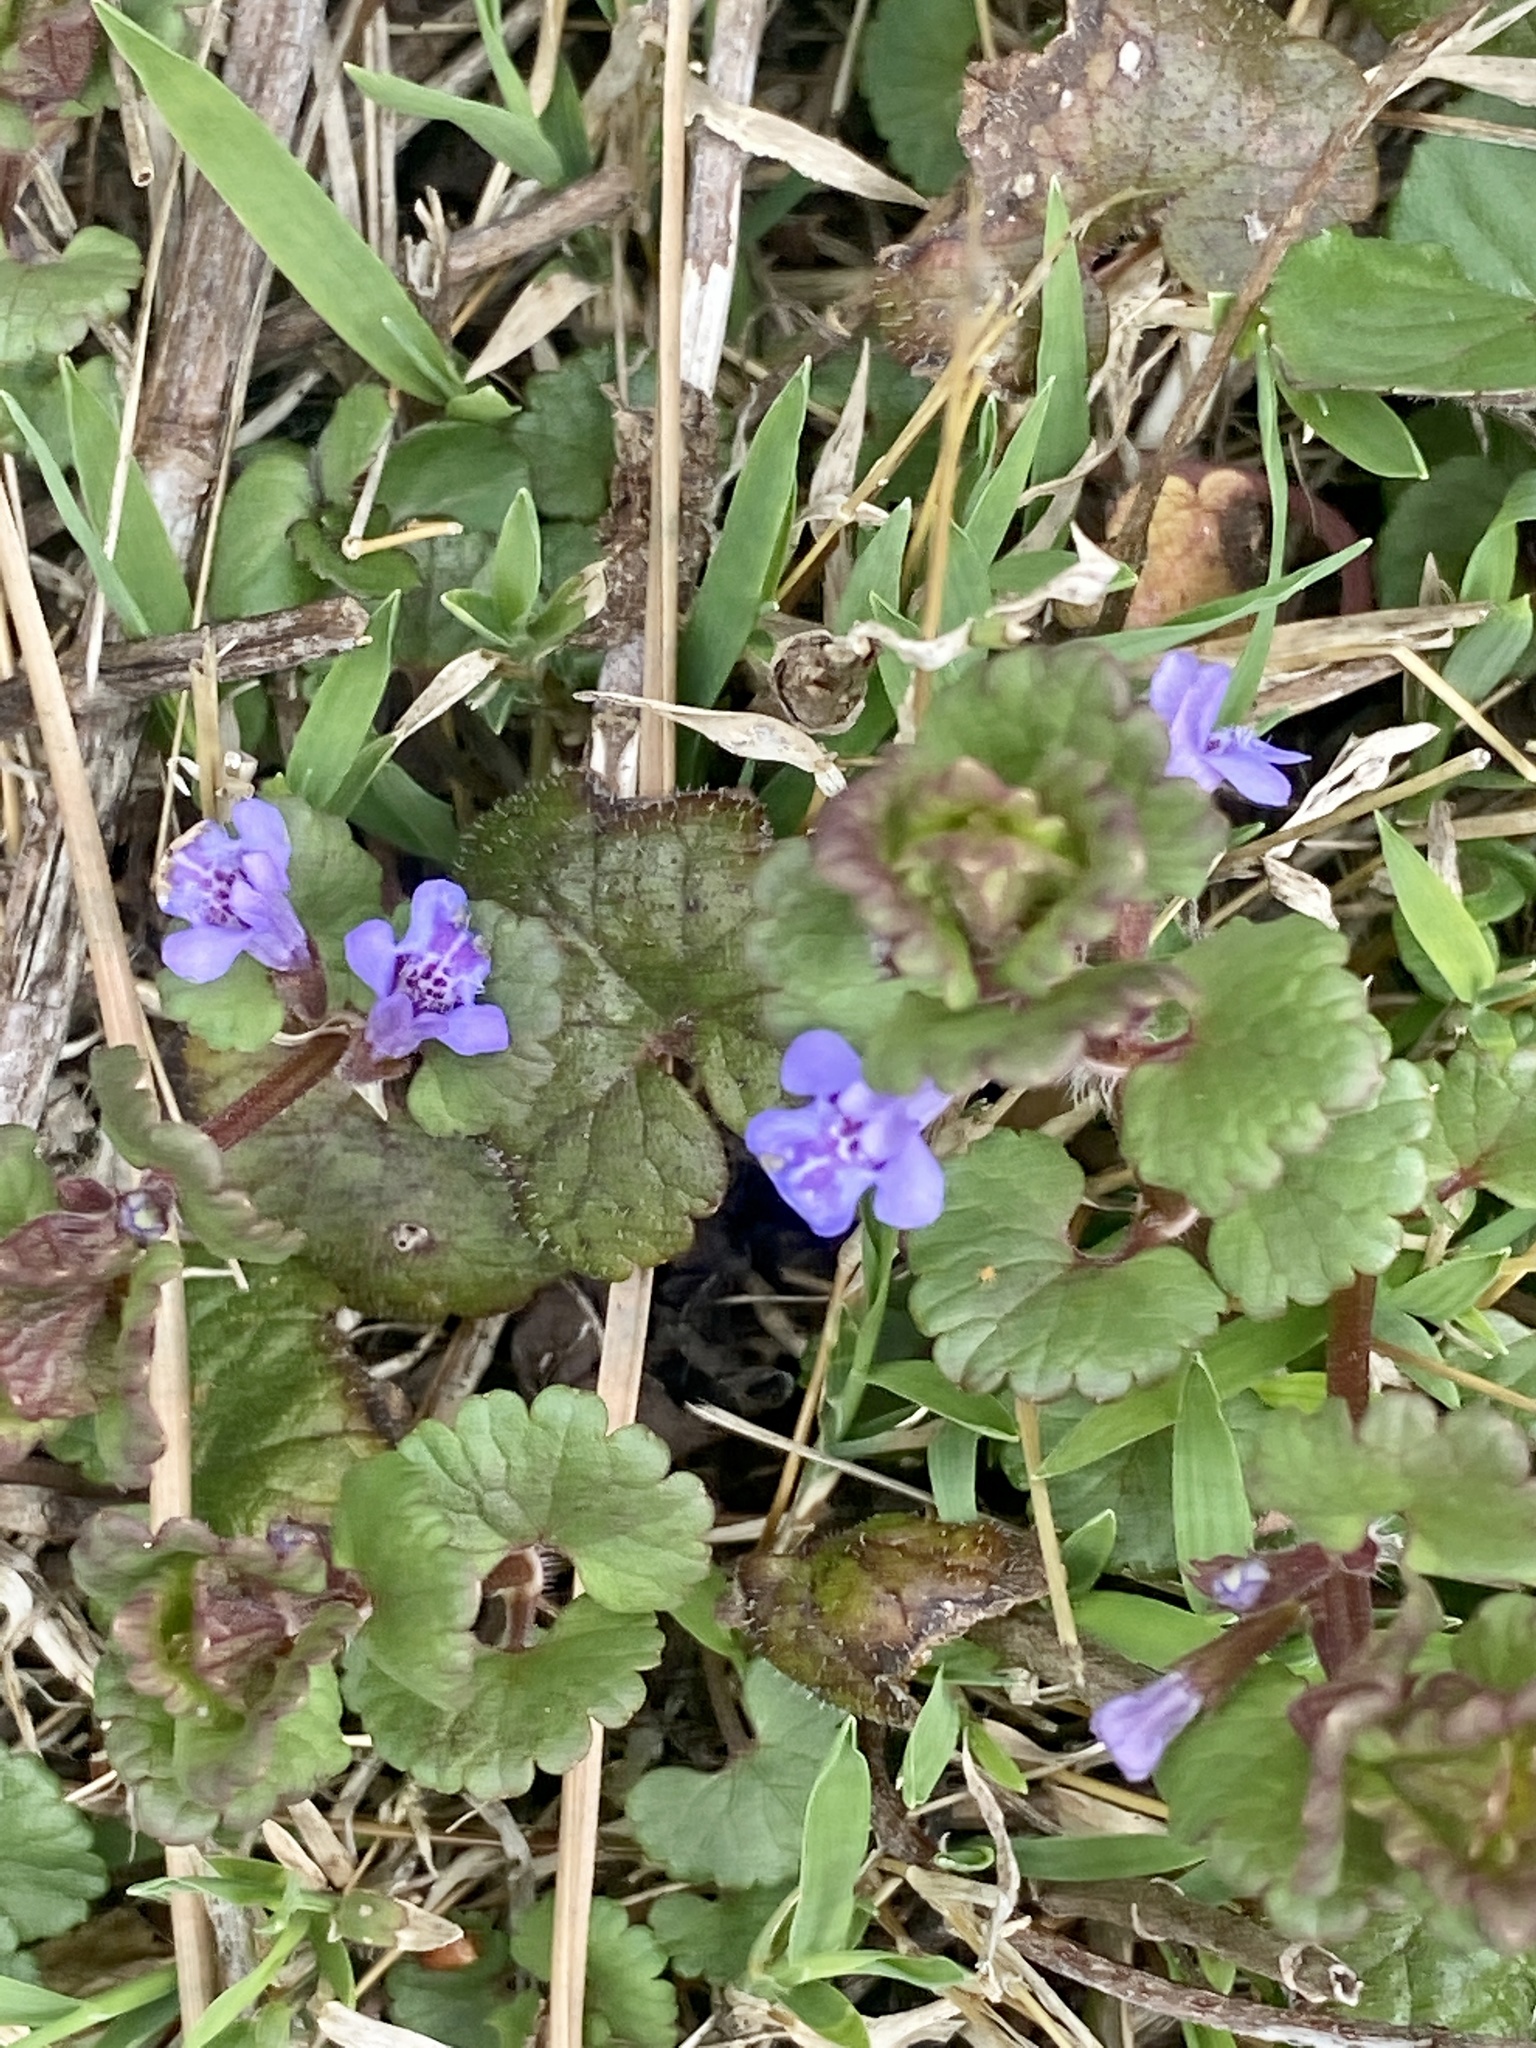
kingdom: Plantae
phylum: Tracheophyta
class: Magnoliopsida
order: Lamiales
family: Lamiaceae
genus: Glechoma
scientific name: Glechoma hederacea
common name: Ground ivy
